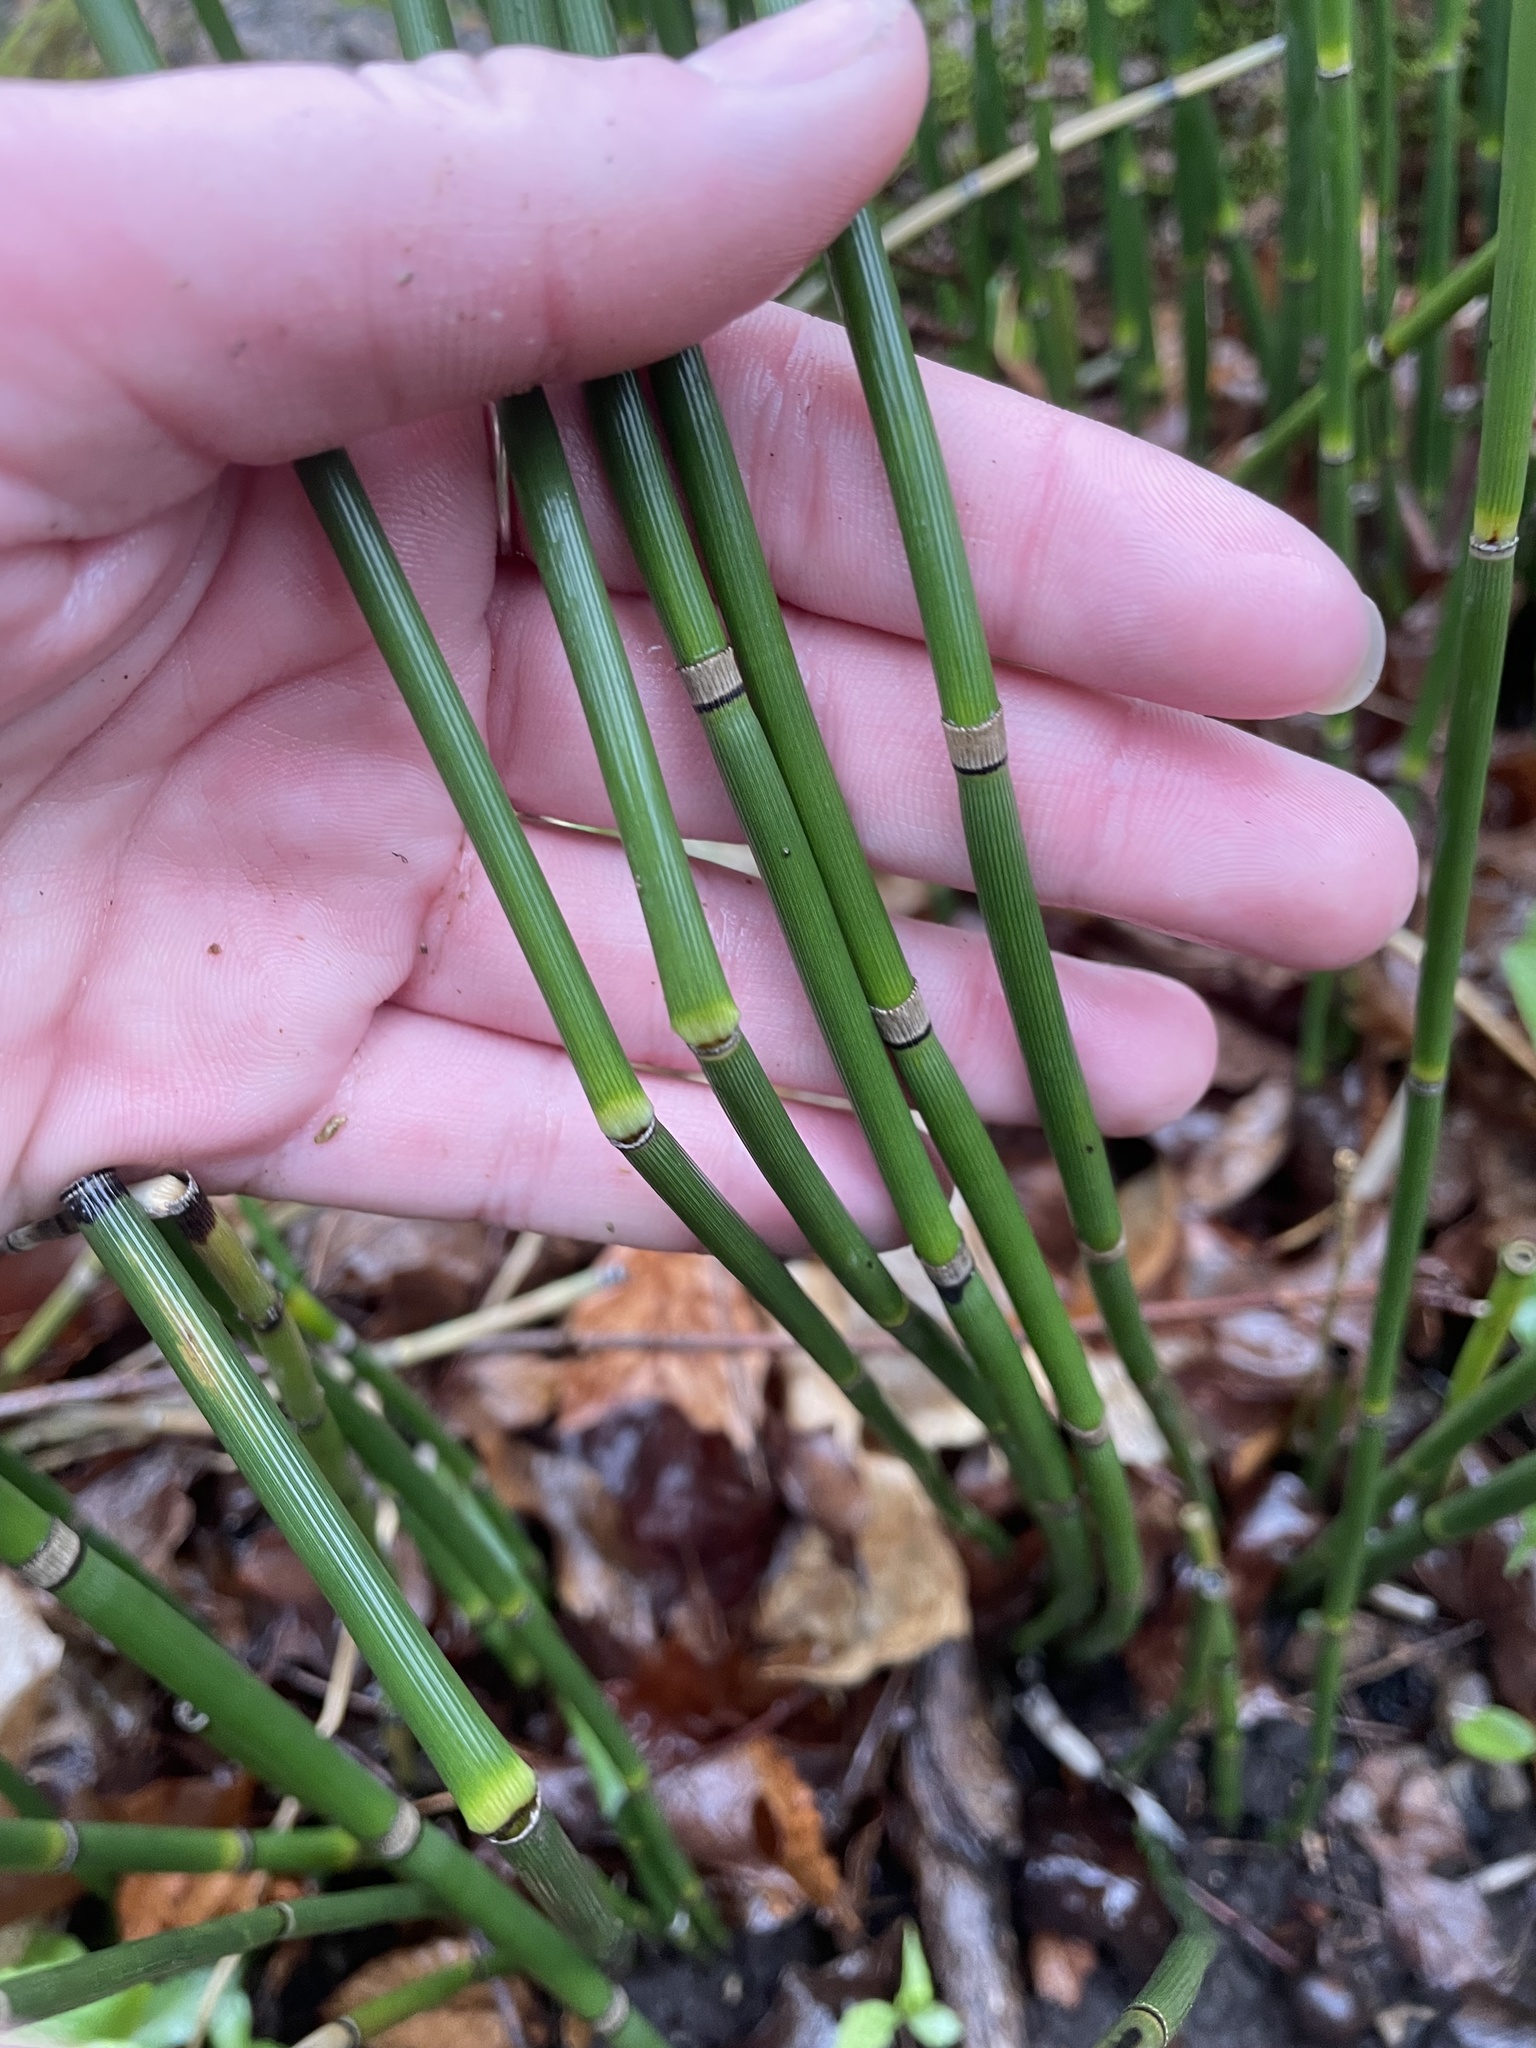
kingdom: Plantae
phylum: Tracheophyta
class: Polypodiopsida
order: Equisetales
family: Equisetaceae
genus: Equisetum
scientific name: Equisetum hyemale
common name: Rough horsetail
